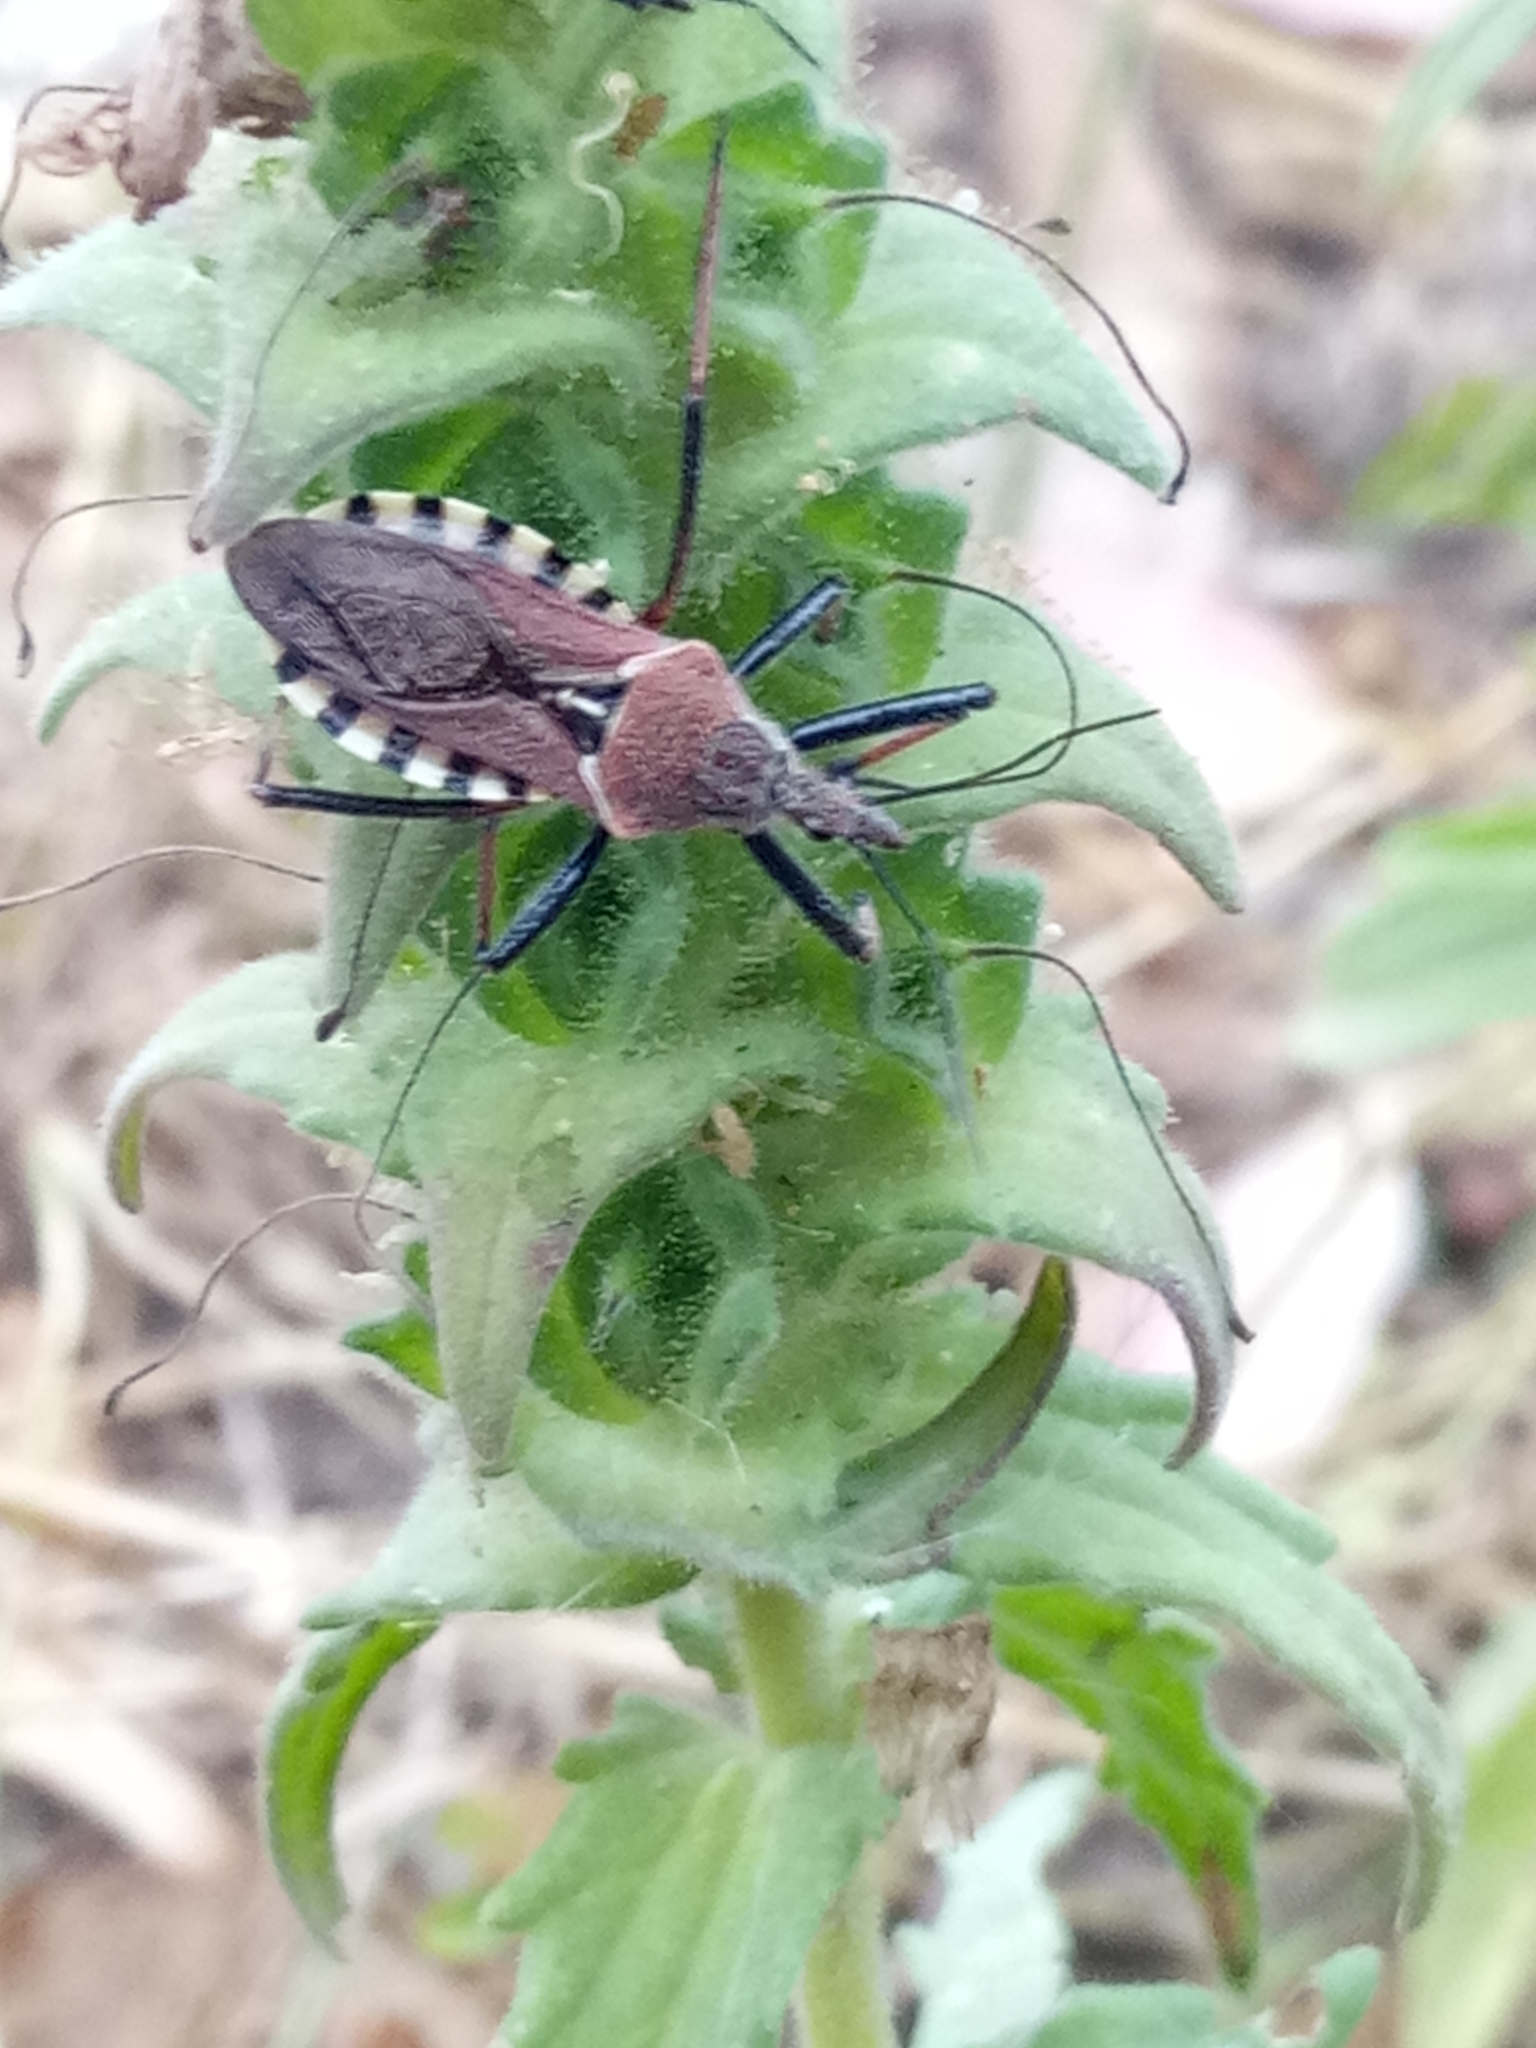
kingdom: Animalia
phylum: Arthropoda
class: Insecta
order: Hemiptera
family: Reduviidae
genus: Rhynocoris
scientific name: Rhynocoris erythropus
